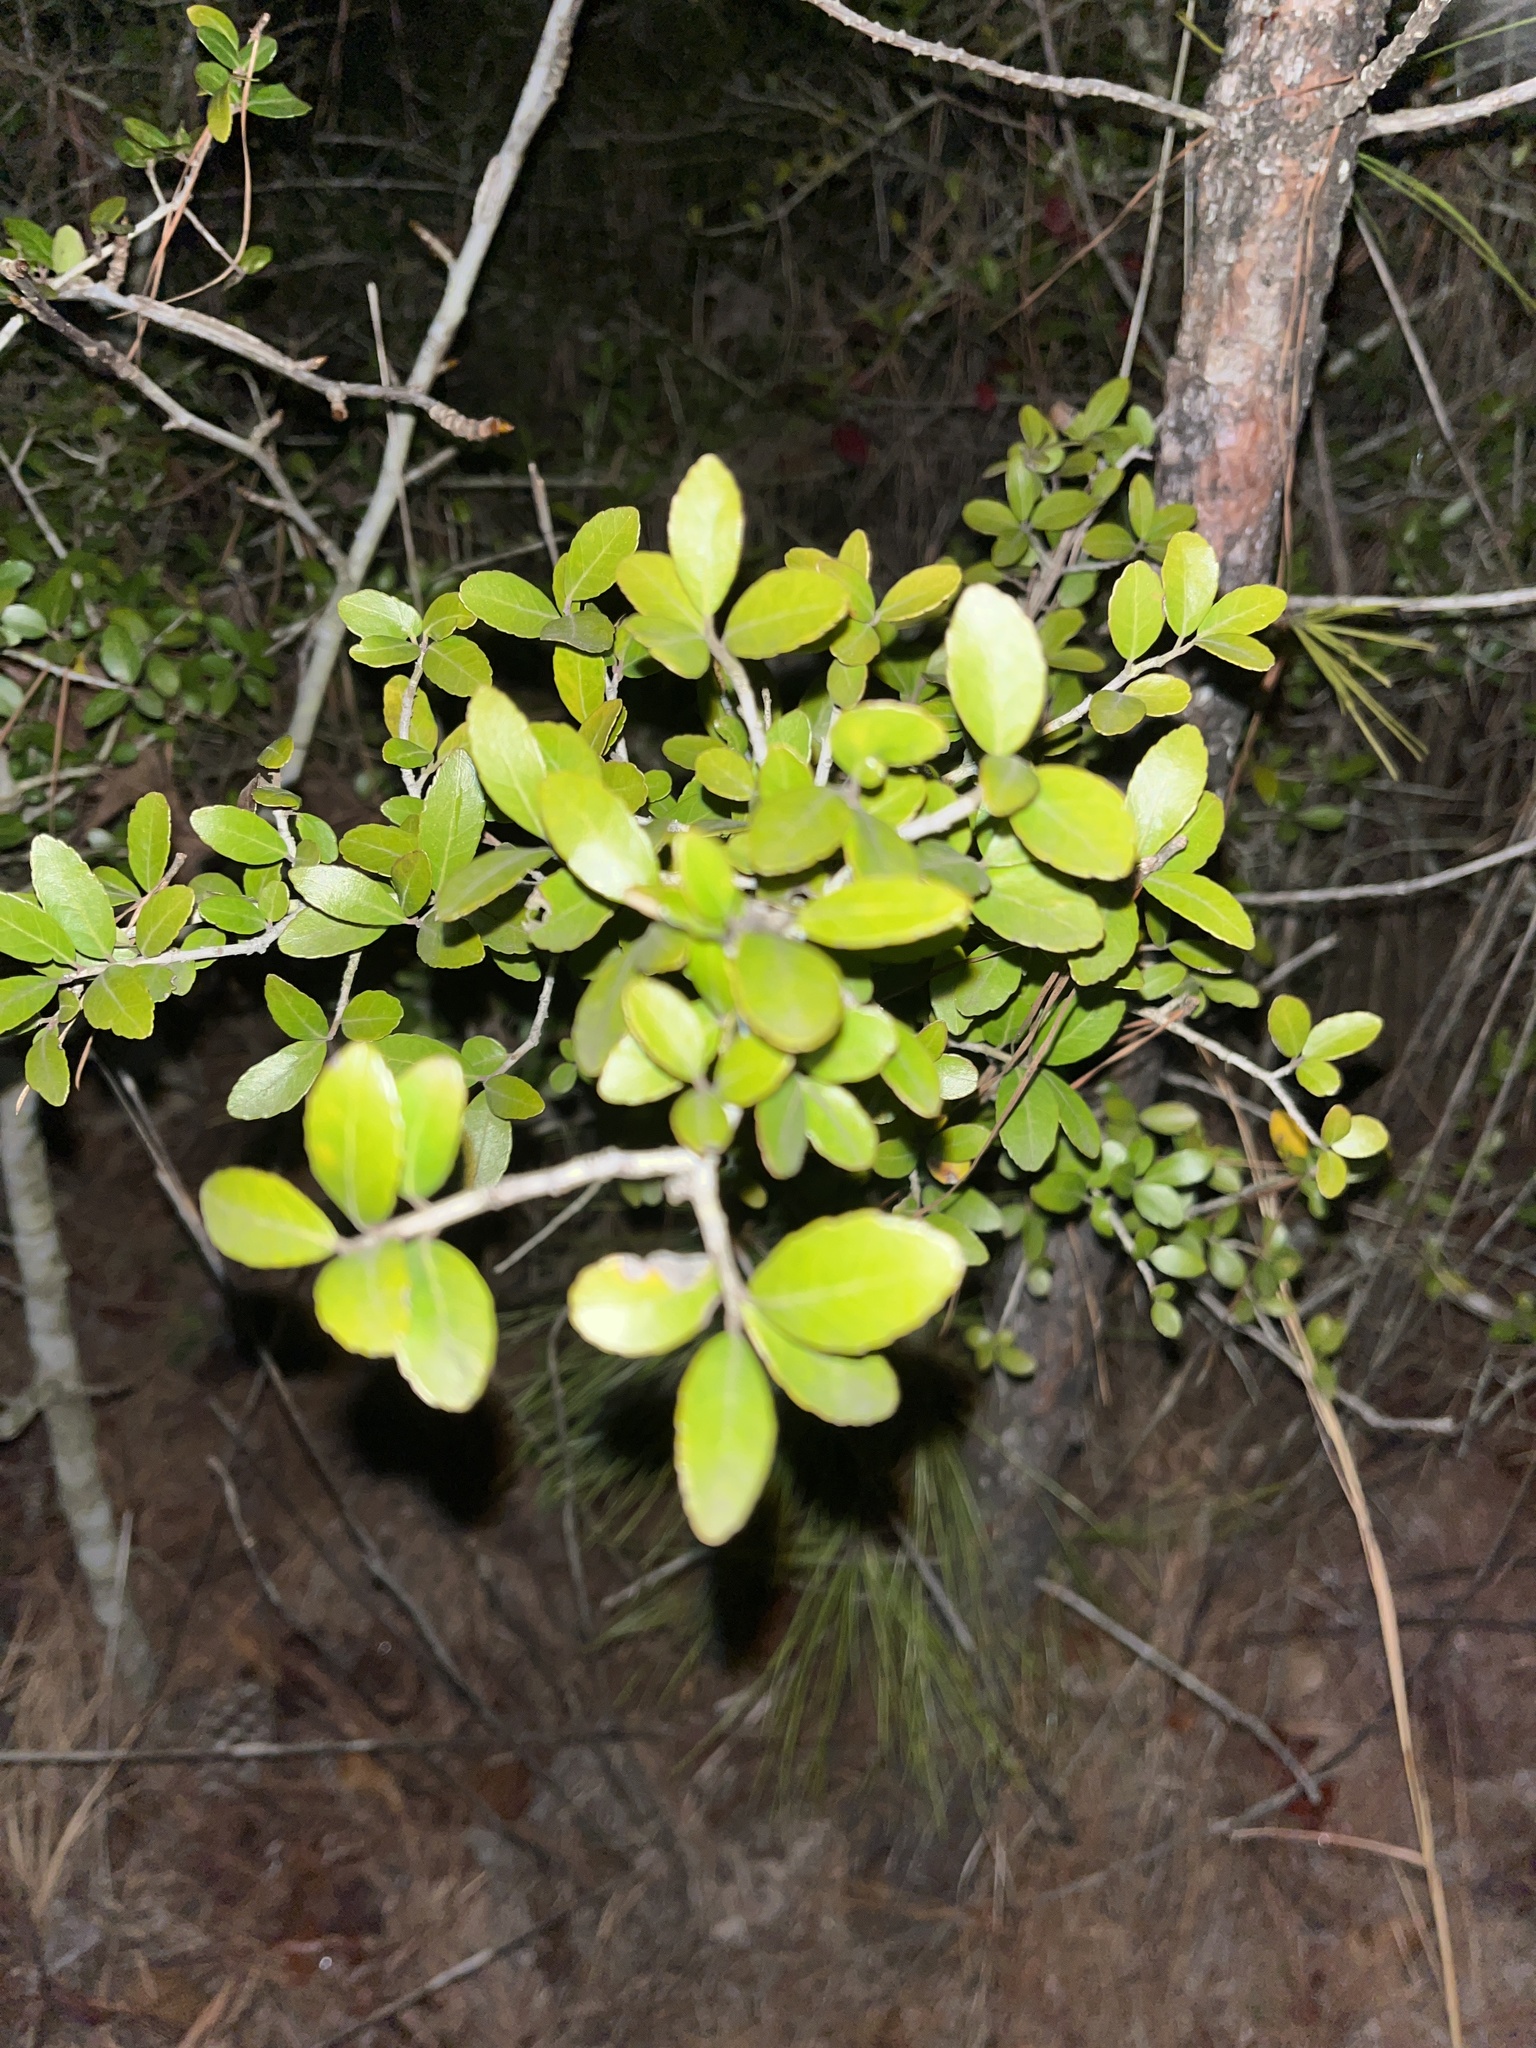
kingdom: Plantae
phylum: Tracheophyta
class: Magnoliopsida
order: Aquifoliales
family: Aquifoliaceae
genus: Ilex
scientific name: Ilex vomitoria
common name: Yaupon holly
